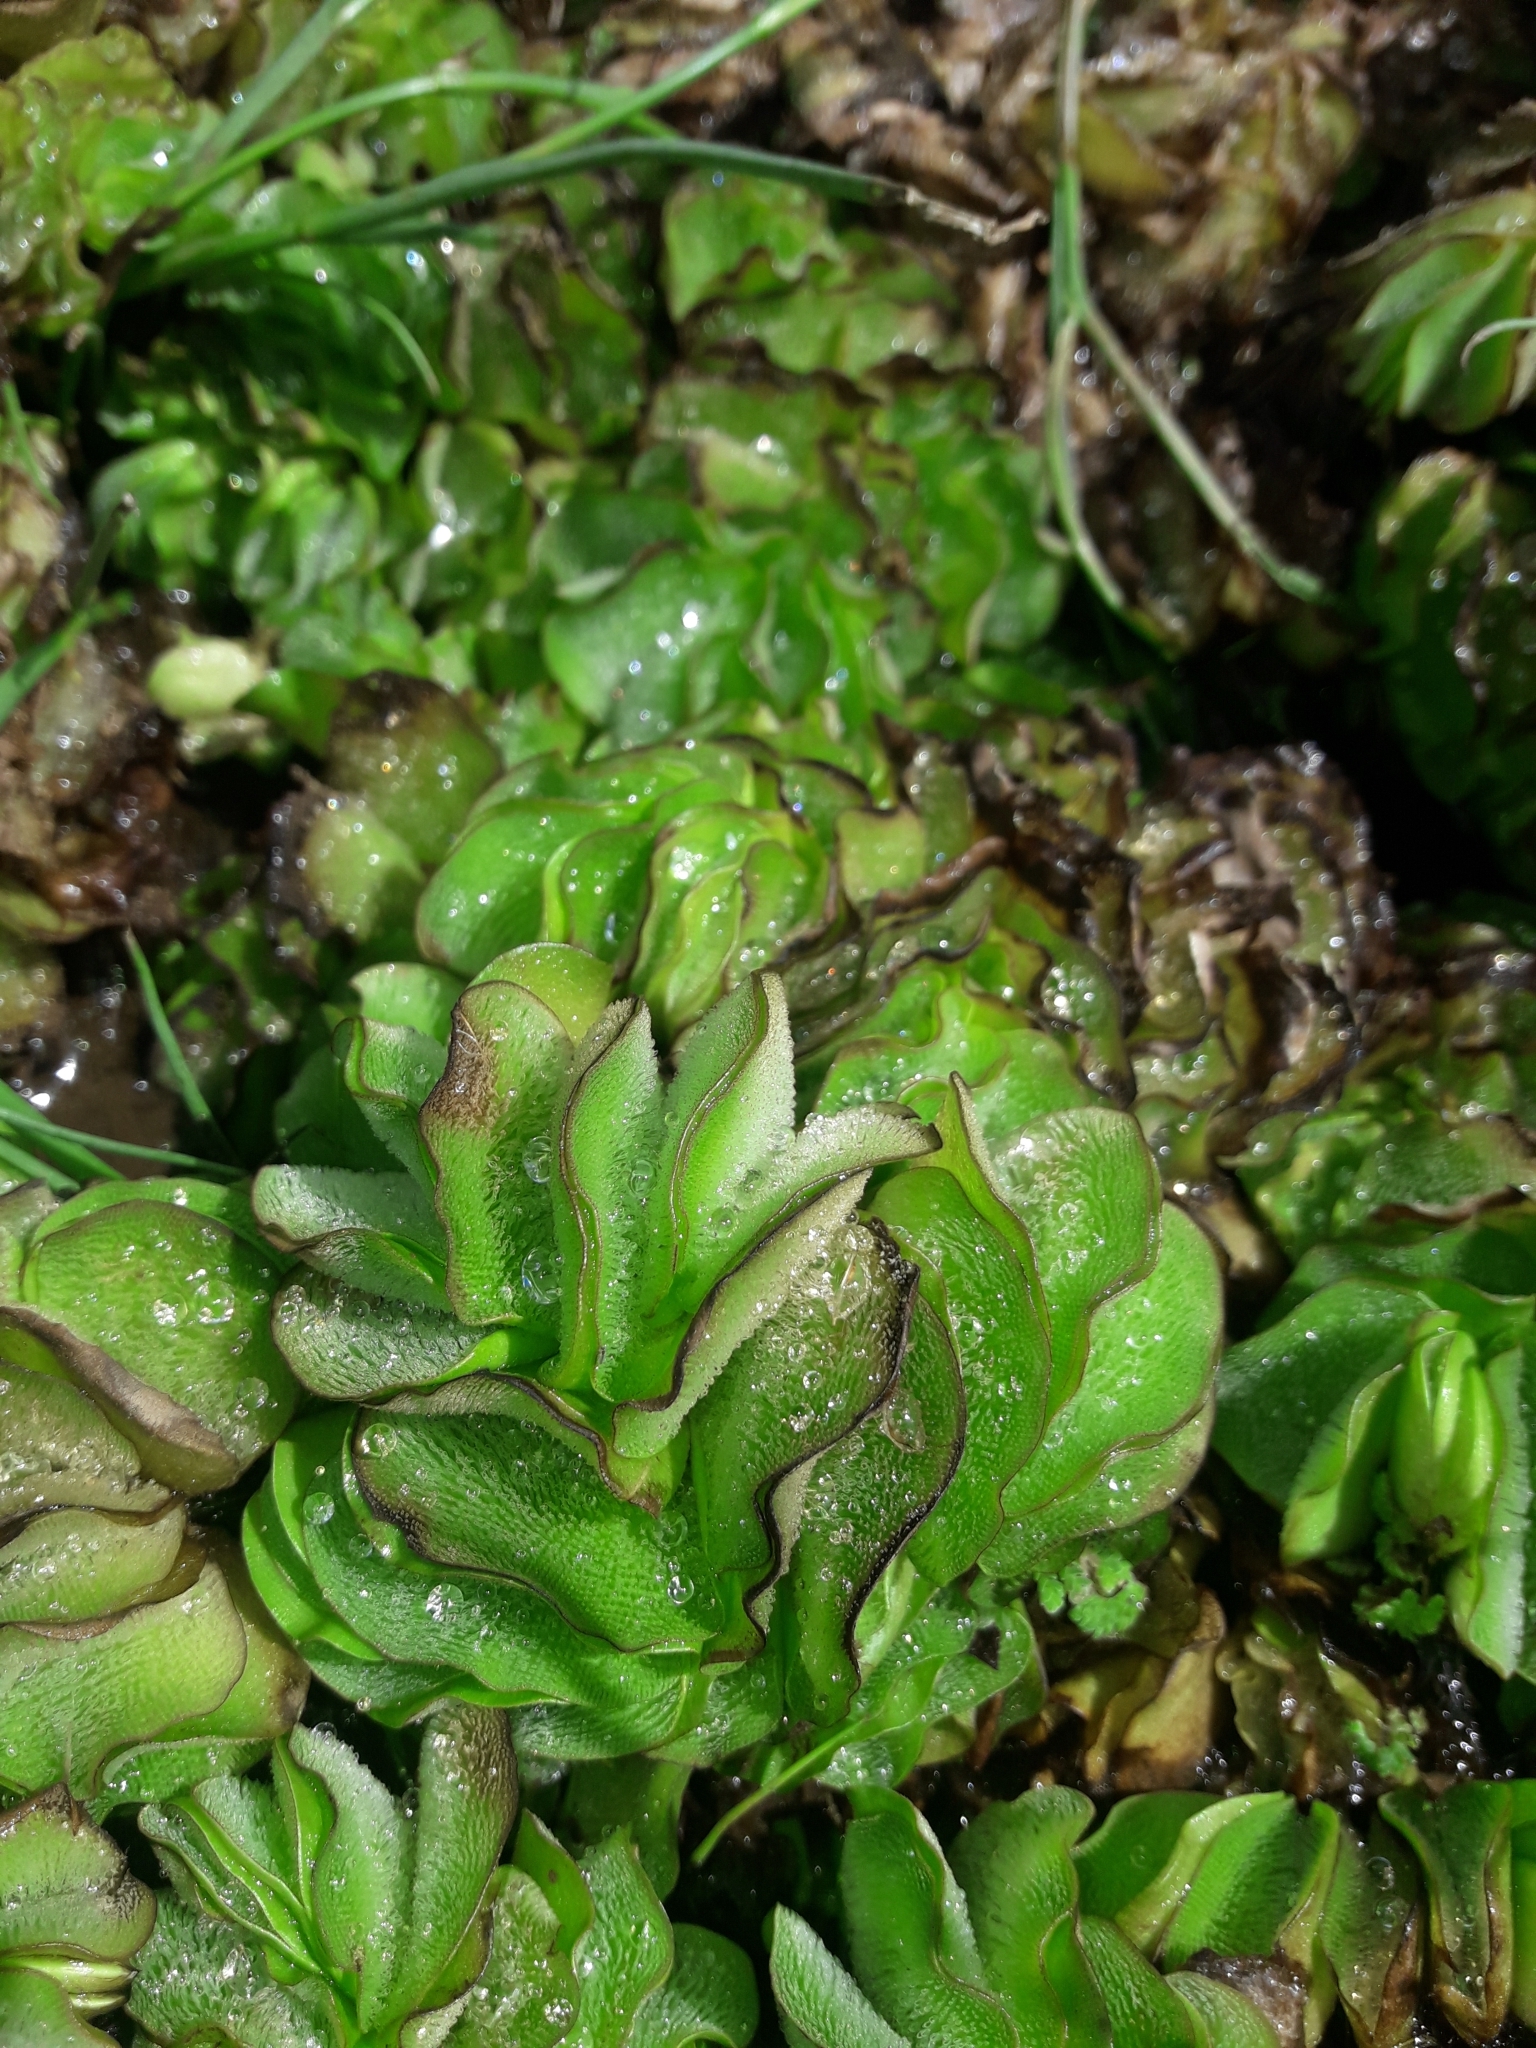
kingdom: Plantae
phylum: Tracheophyta
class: Polypodiopsida
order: Salviniales
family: Salviniaceae
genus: Salvinia
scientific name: Salvinia molesta
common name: Kariba weed
